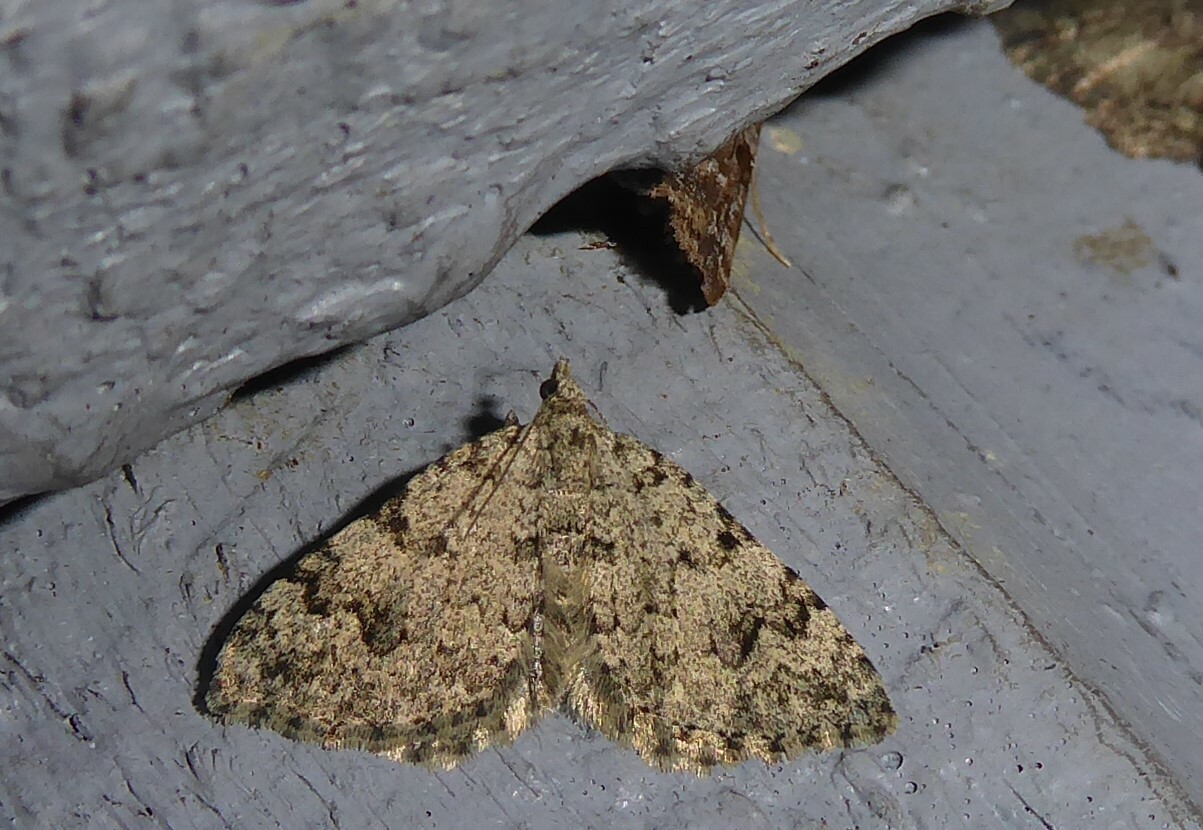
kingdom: Animalia
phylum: Arthropoda
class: Insecta
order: Lepidoptera
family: Geometridae
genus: Helastia
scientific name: Helastia cinerearia
